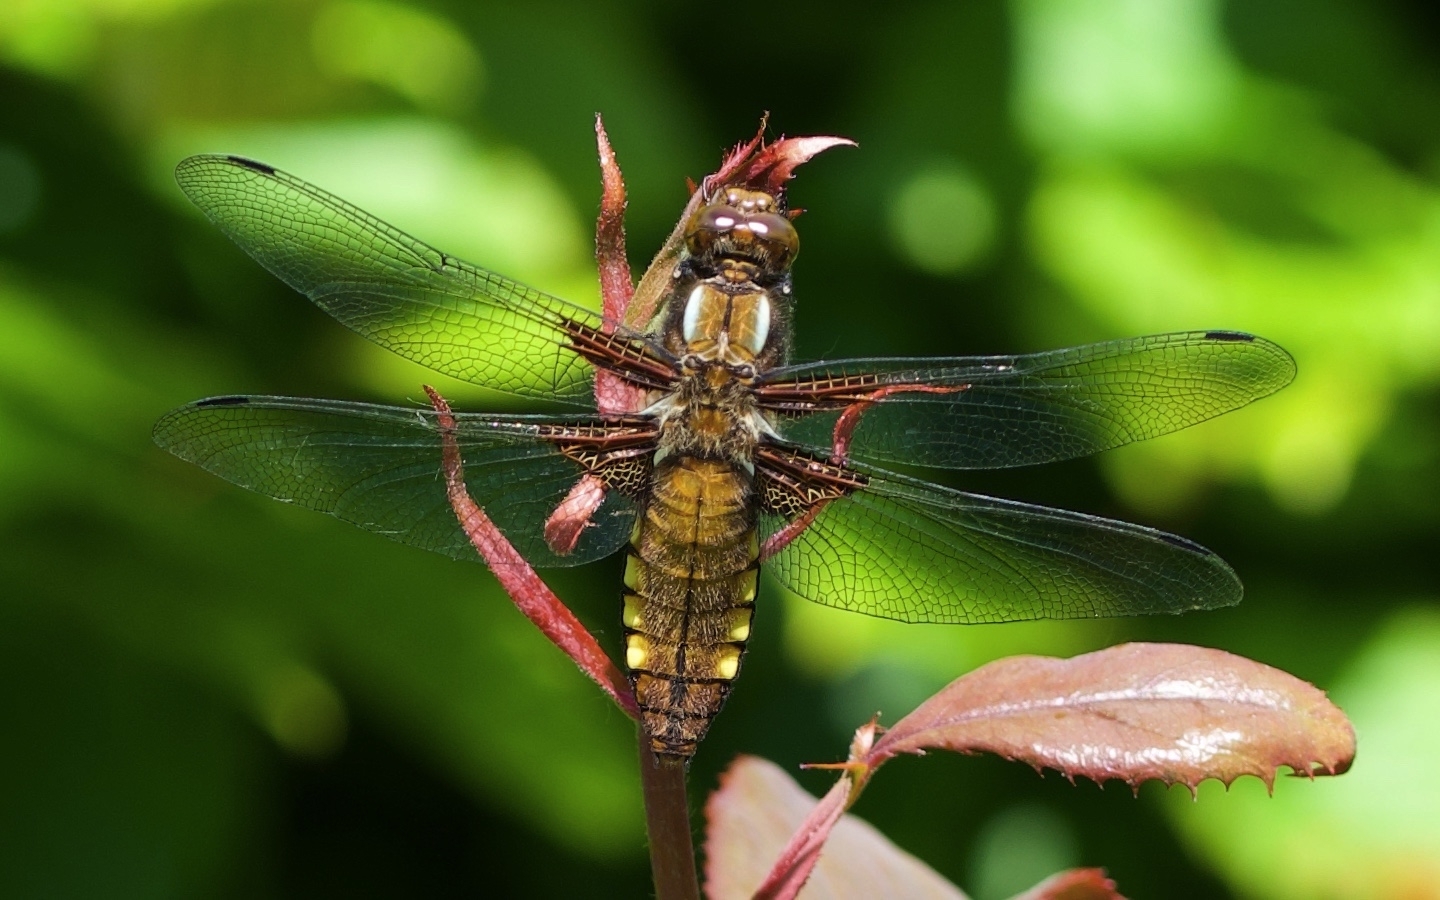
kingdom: Animalia
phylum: Arthropoda
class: Insecta
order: Odonata
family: Libellulidae
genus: Libellula
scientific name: Libellula depressa
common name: Broad-bodied chaser
